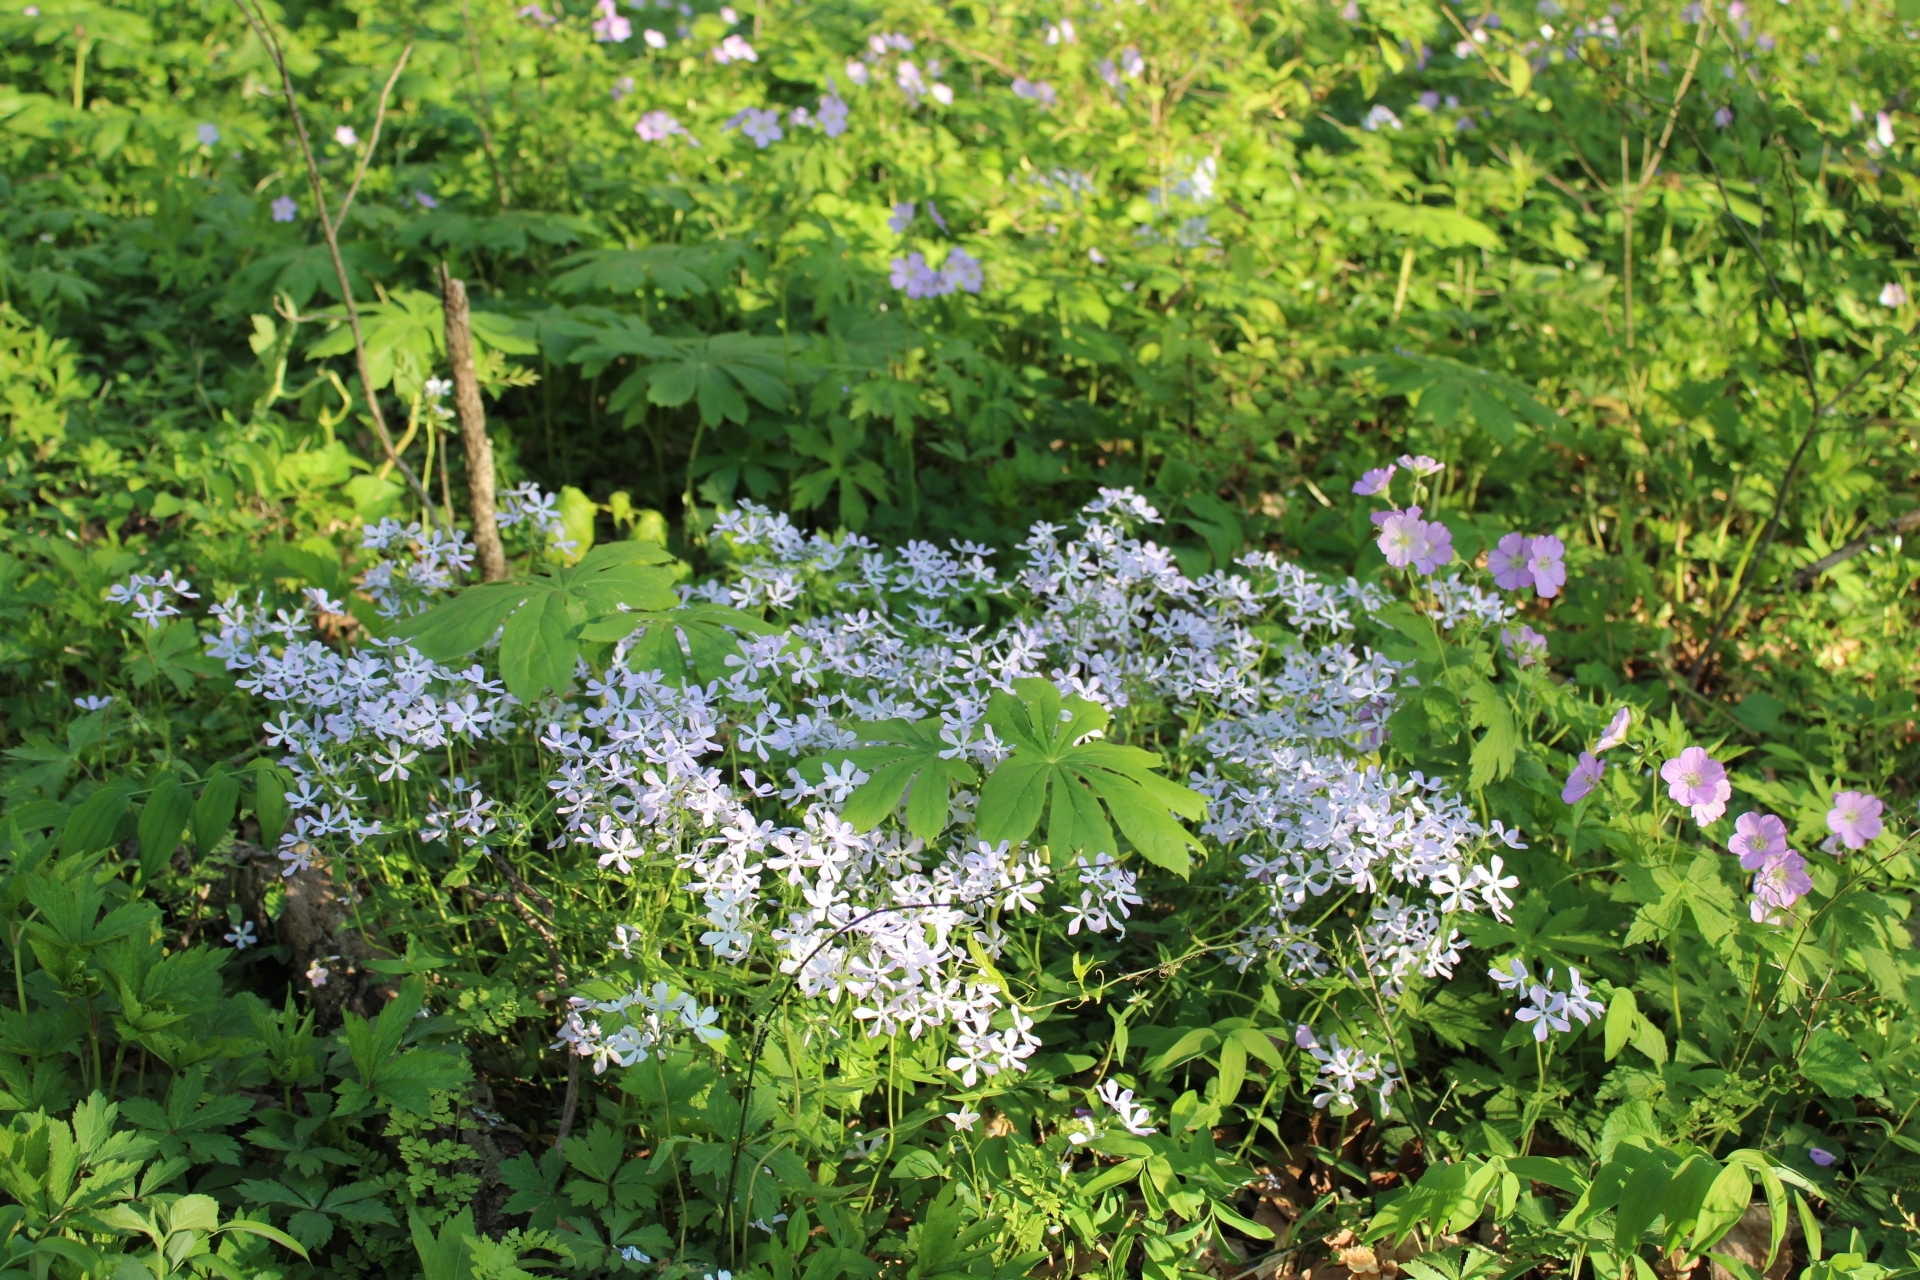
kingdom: Plantae
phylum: Tracheophyta
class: Magnoliopsida
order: Ericales
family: Polemoniaceae
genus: Phlox
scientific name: Phlox divaricata
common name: Blue phlox
